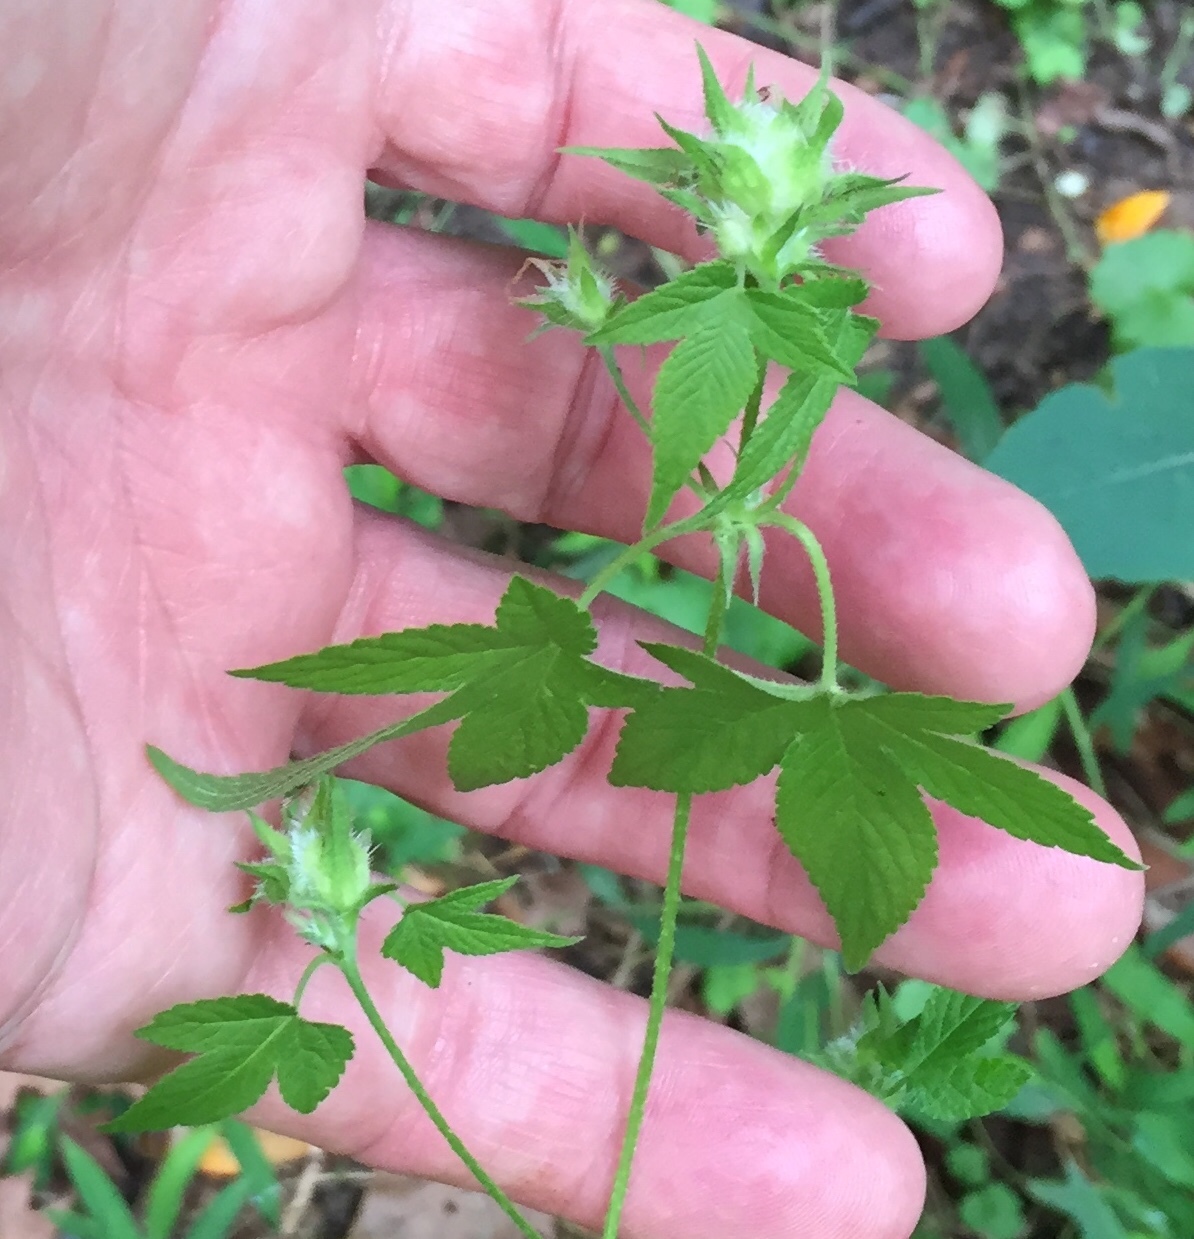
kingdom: Plantae
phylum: Tracheophyta
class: Magnoliopsida
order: Rosales
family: Cannabaceae
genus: Humulus
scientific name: Humulus scandens
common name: Japanese hop
